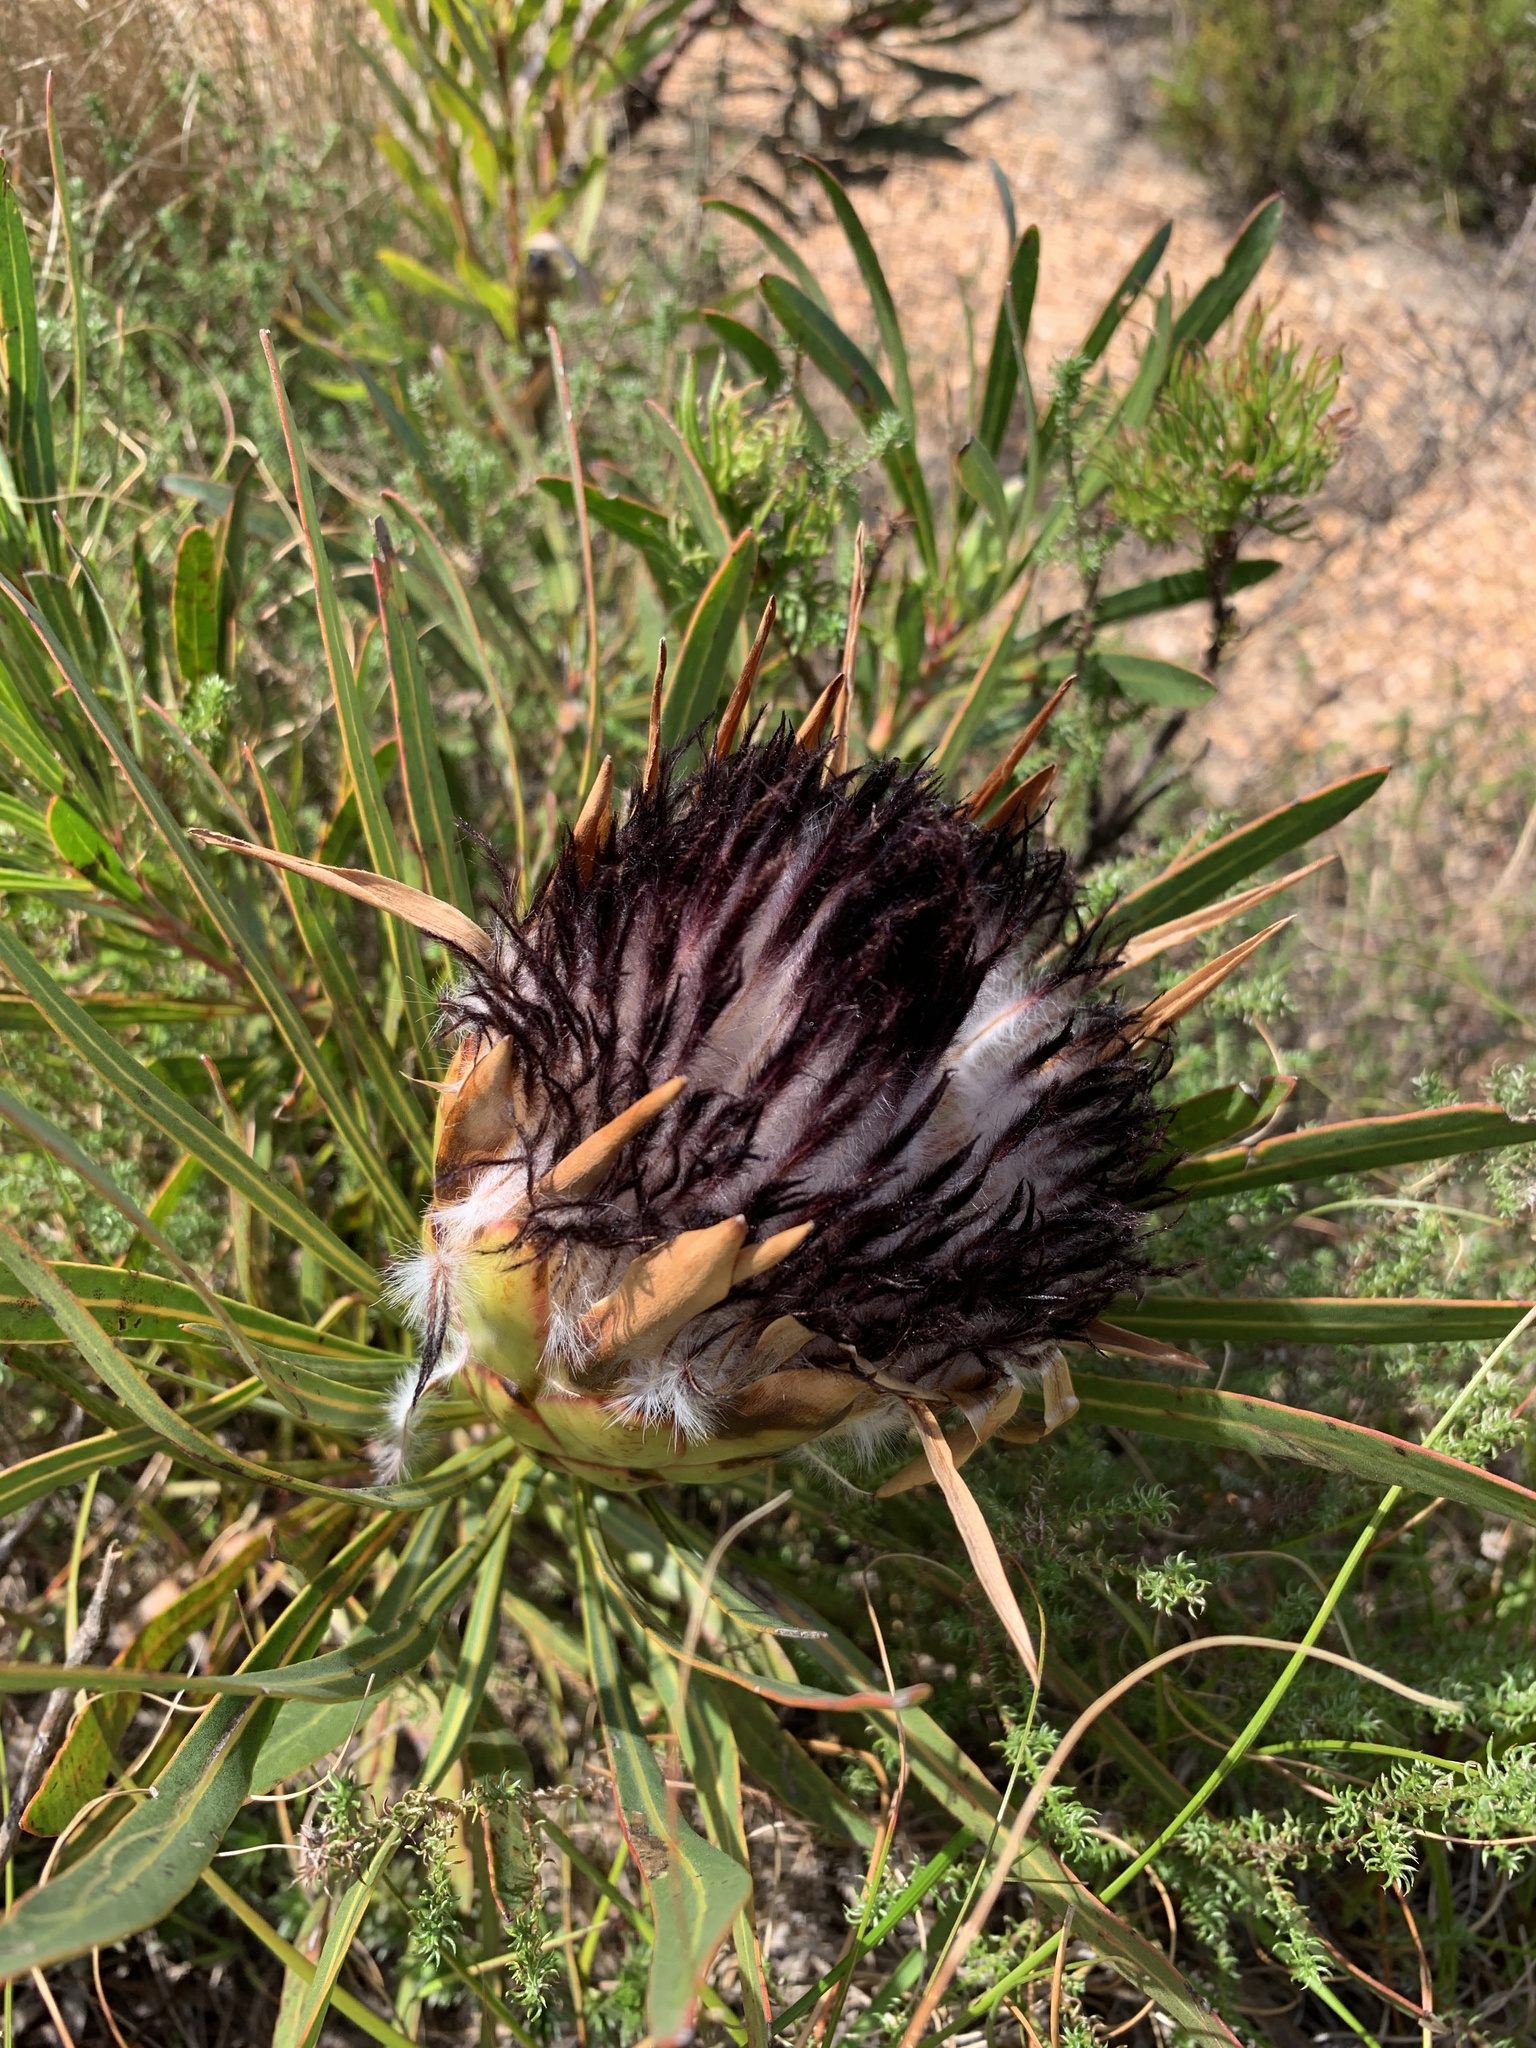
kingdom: Plantae
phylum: Tracheophyta
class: Magnoliopsida
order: Proteales
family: Proteaceae
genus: Protea
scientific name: Protea longifolia
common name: Long-leaf sugarbush
